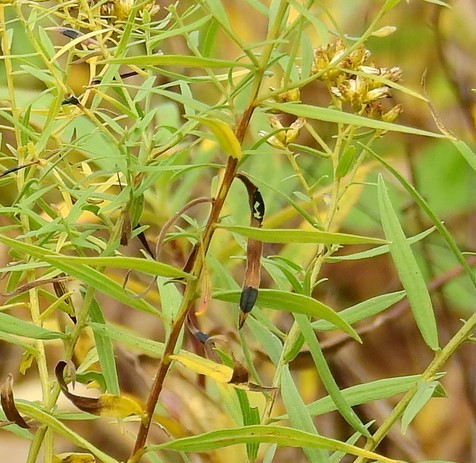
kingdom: Animalia
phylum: Arthropoda
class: Insecta
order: Diptera
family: Cecidomyiidae
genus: Asteromyia
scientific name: Asteromyia euthamiae
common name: Euthamia leaf gall midge
